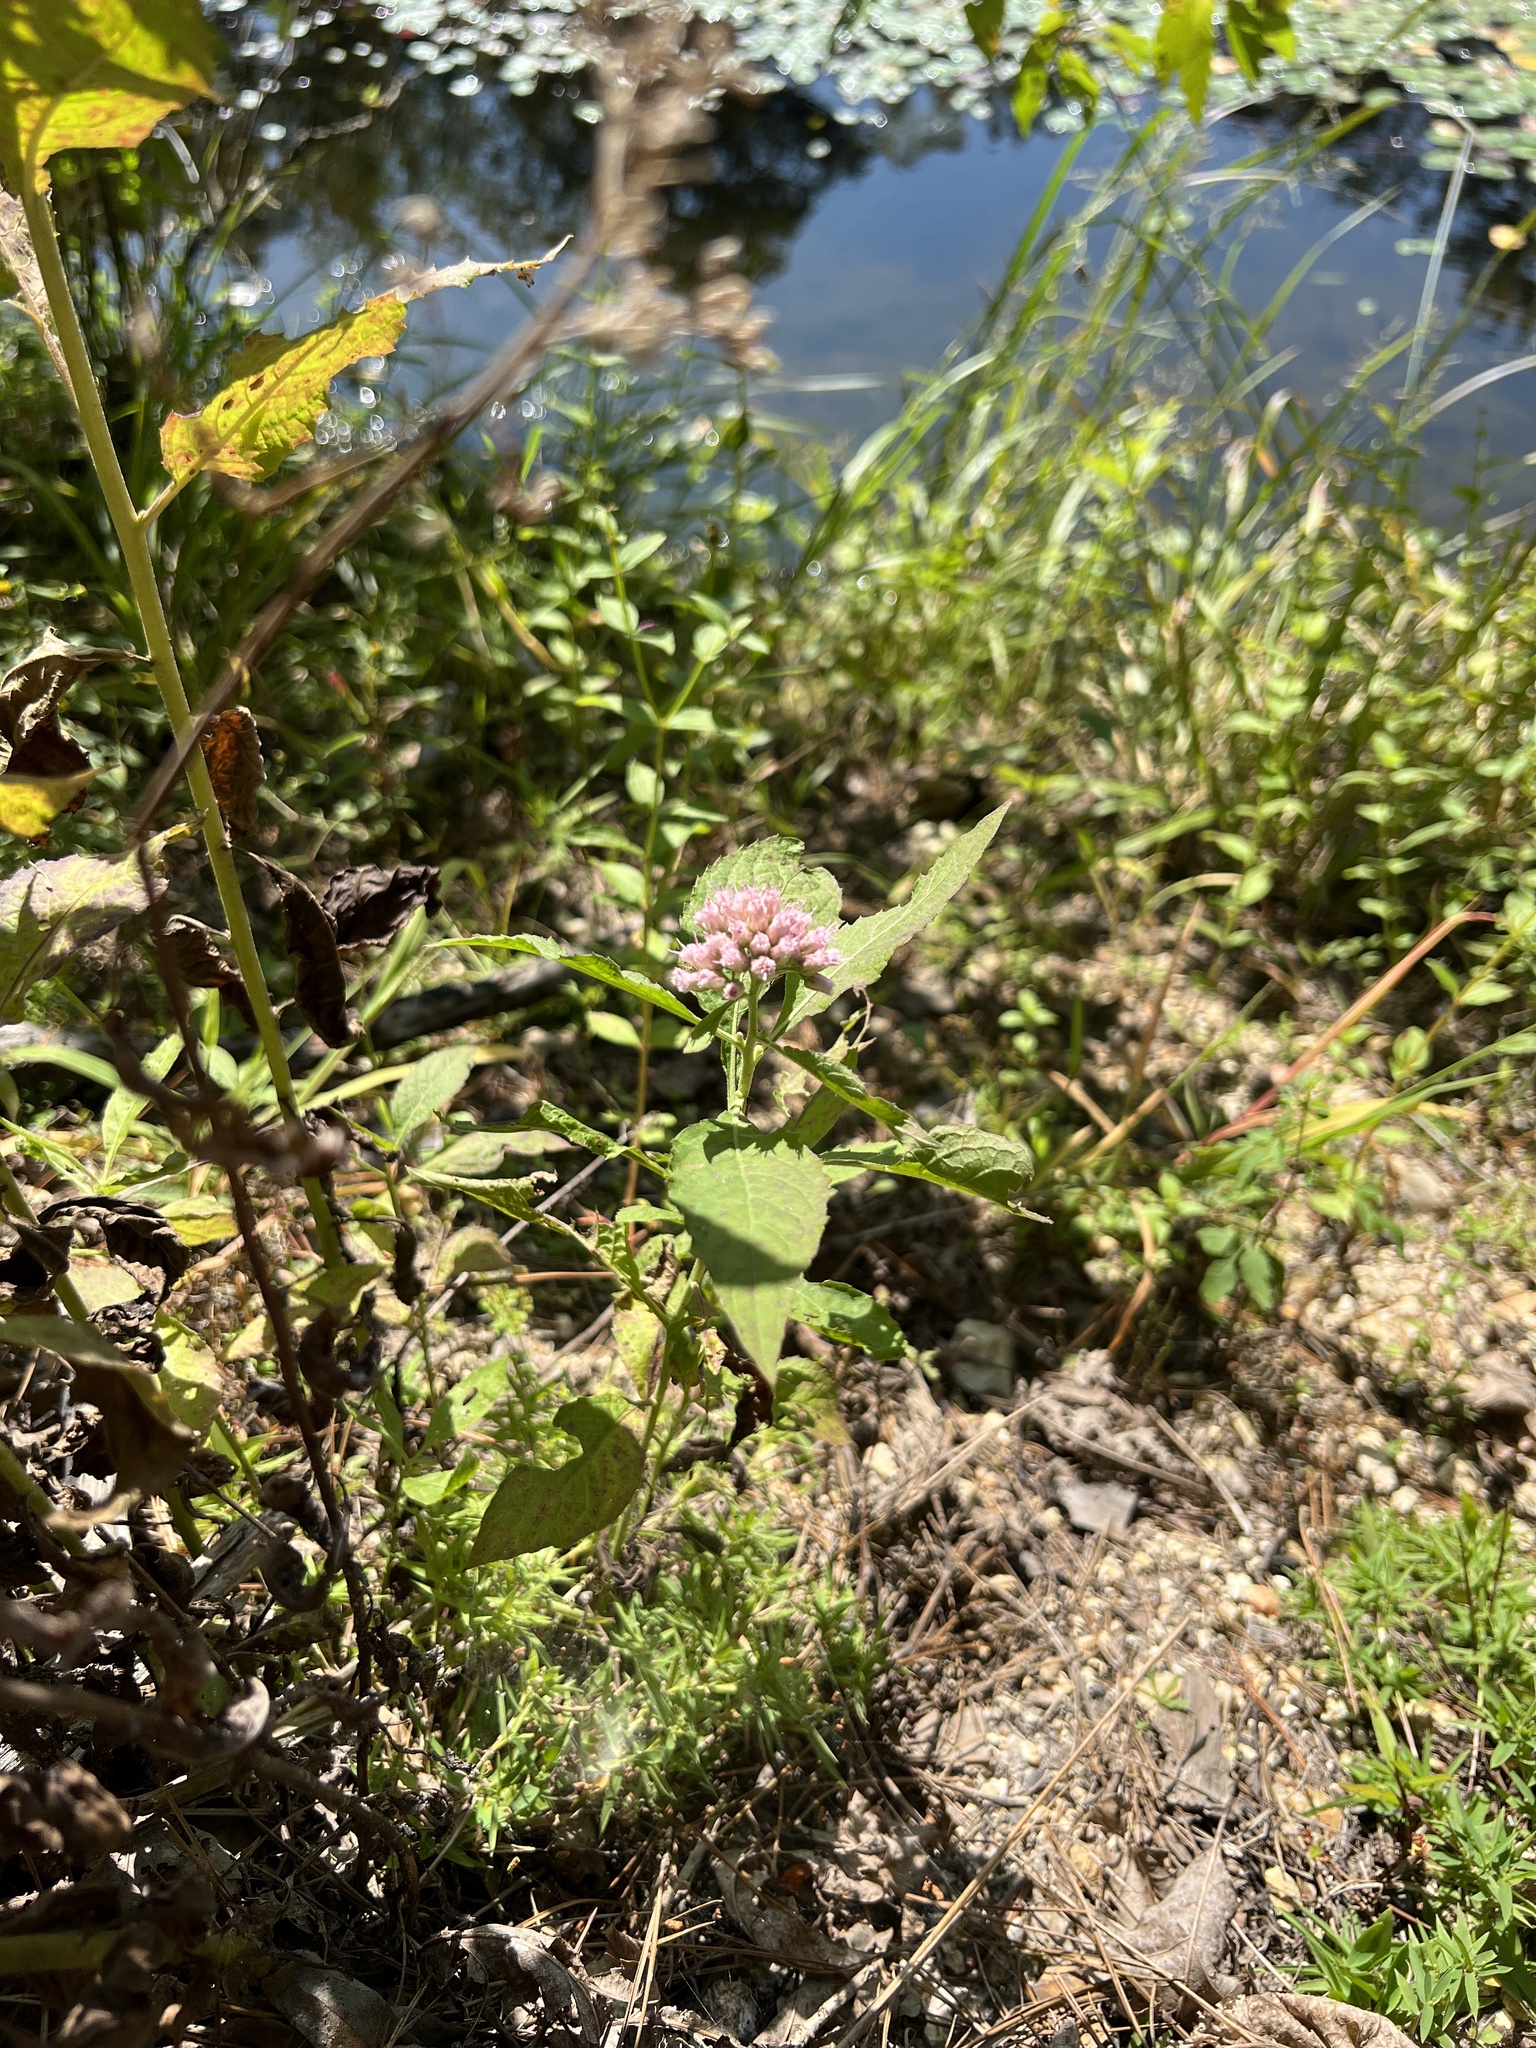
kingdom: Plantae
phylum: Tracheophyta
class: Magnoliopsida
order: Asterales
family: Asteraceae
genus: Pluchea
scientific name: Pluchea camphorata
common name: Camphor pluchea
